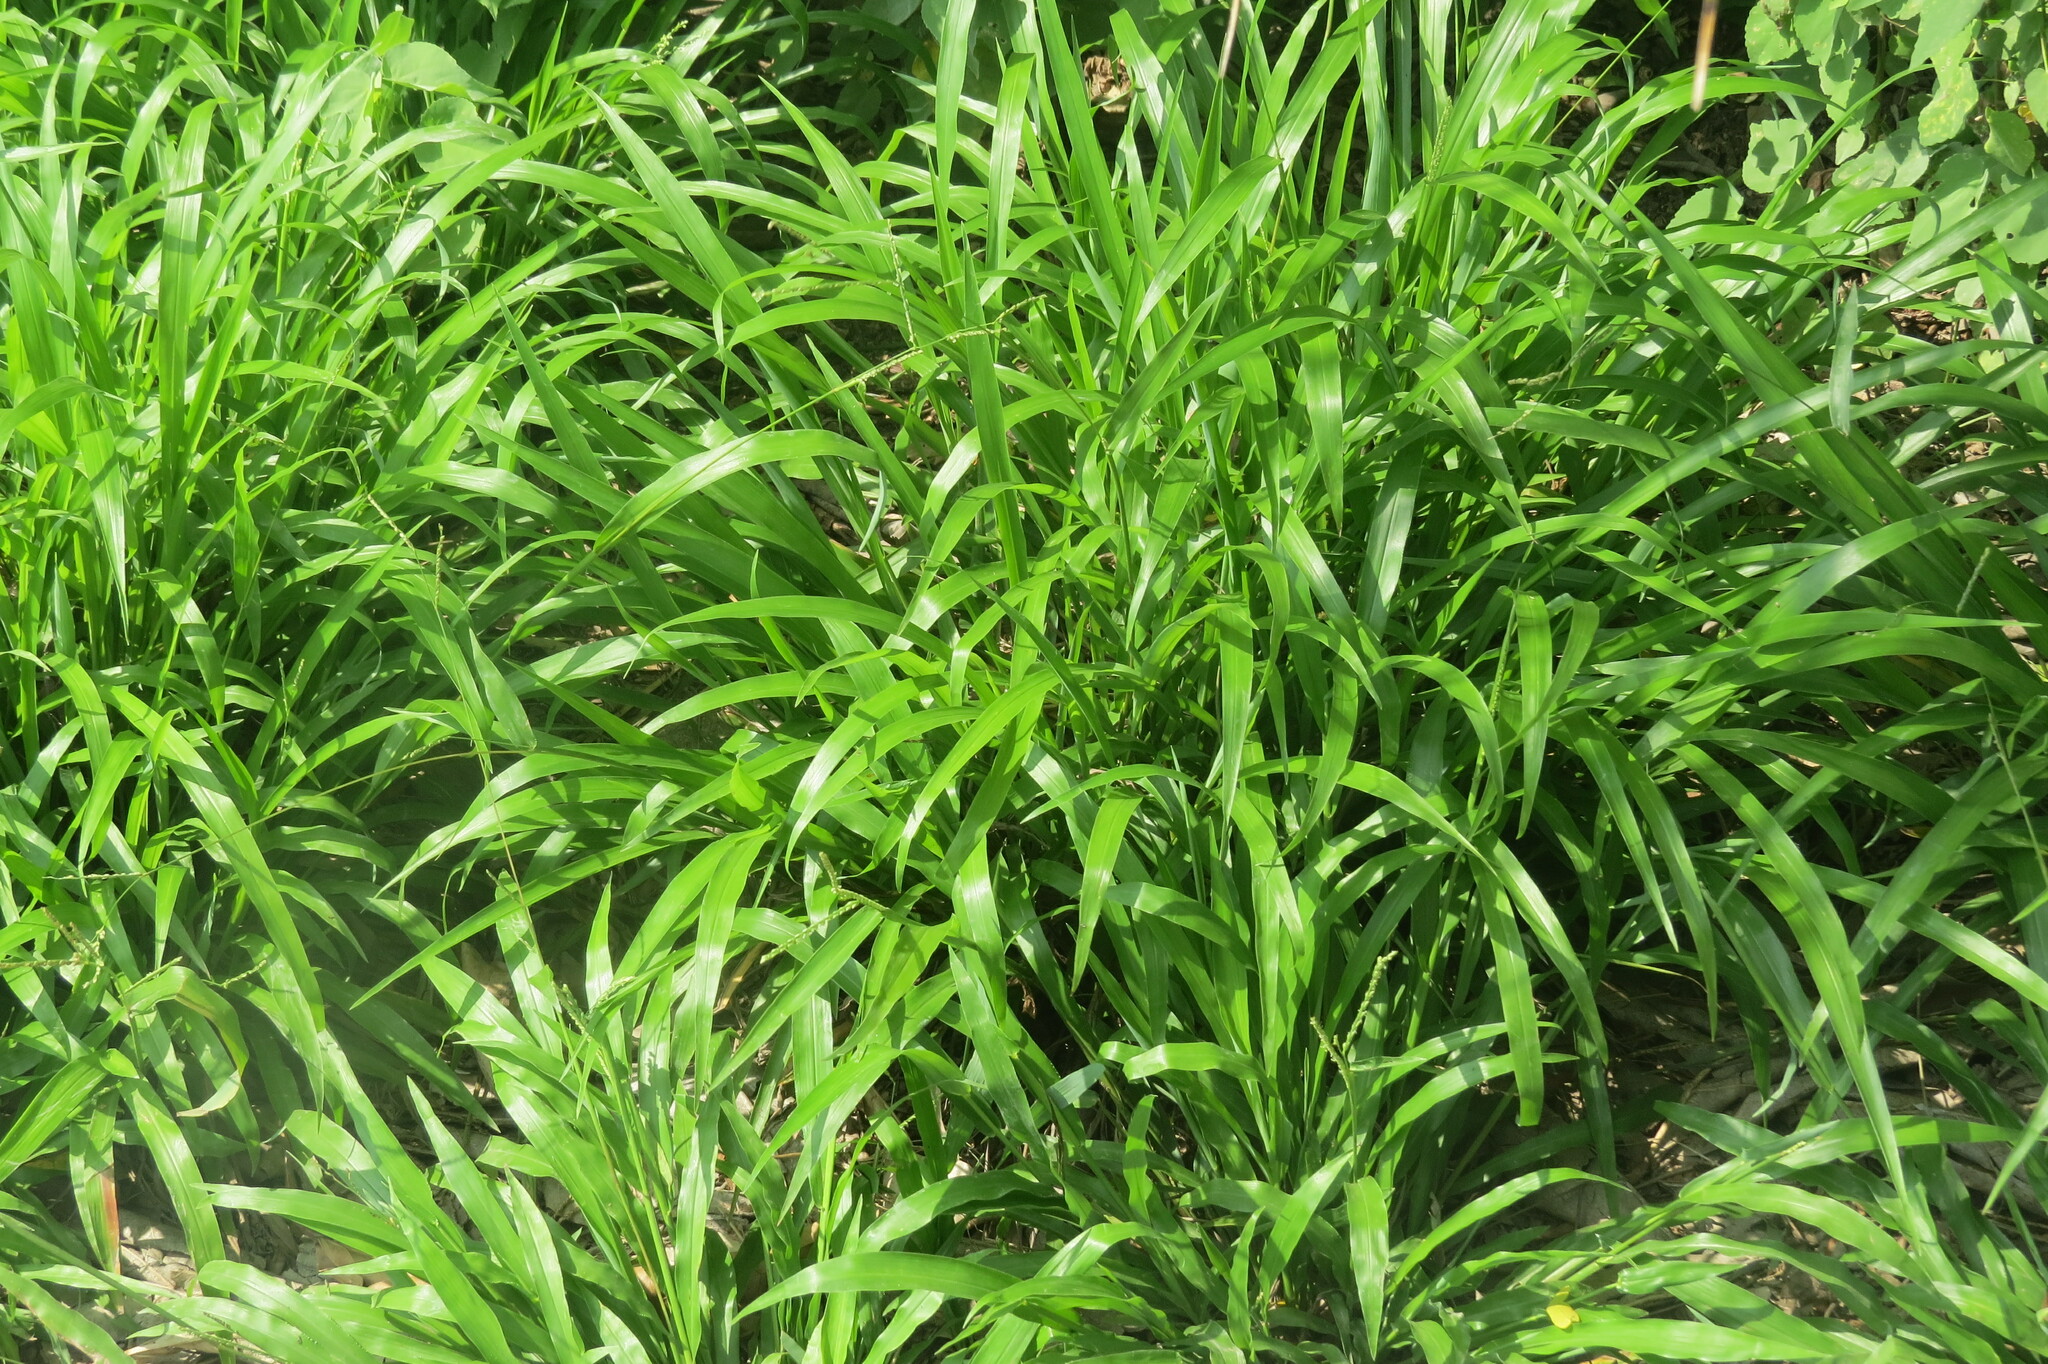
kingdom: Plantae
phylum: Tracheophyta
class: Liliopsida
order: Poales
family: Poaceae
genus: Paspalum
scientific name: Paspalum langei
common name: Rusty-seed paspalum
